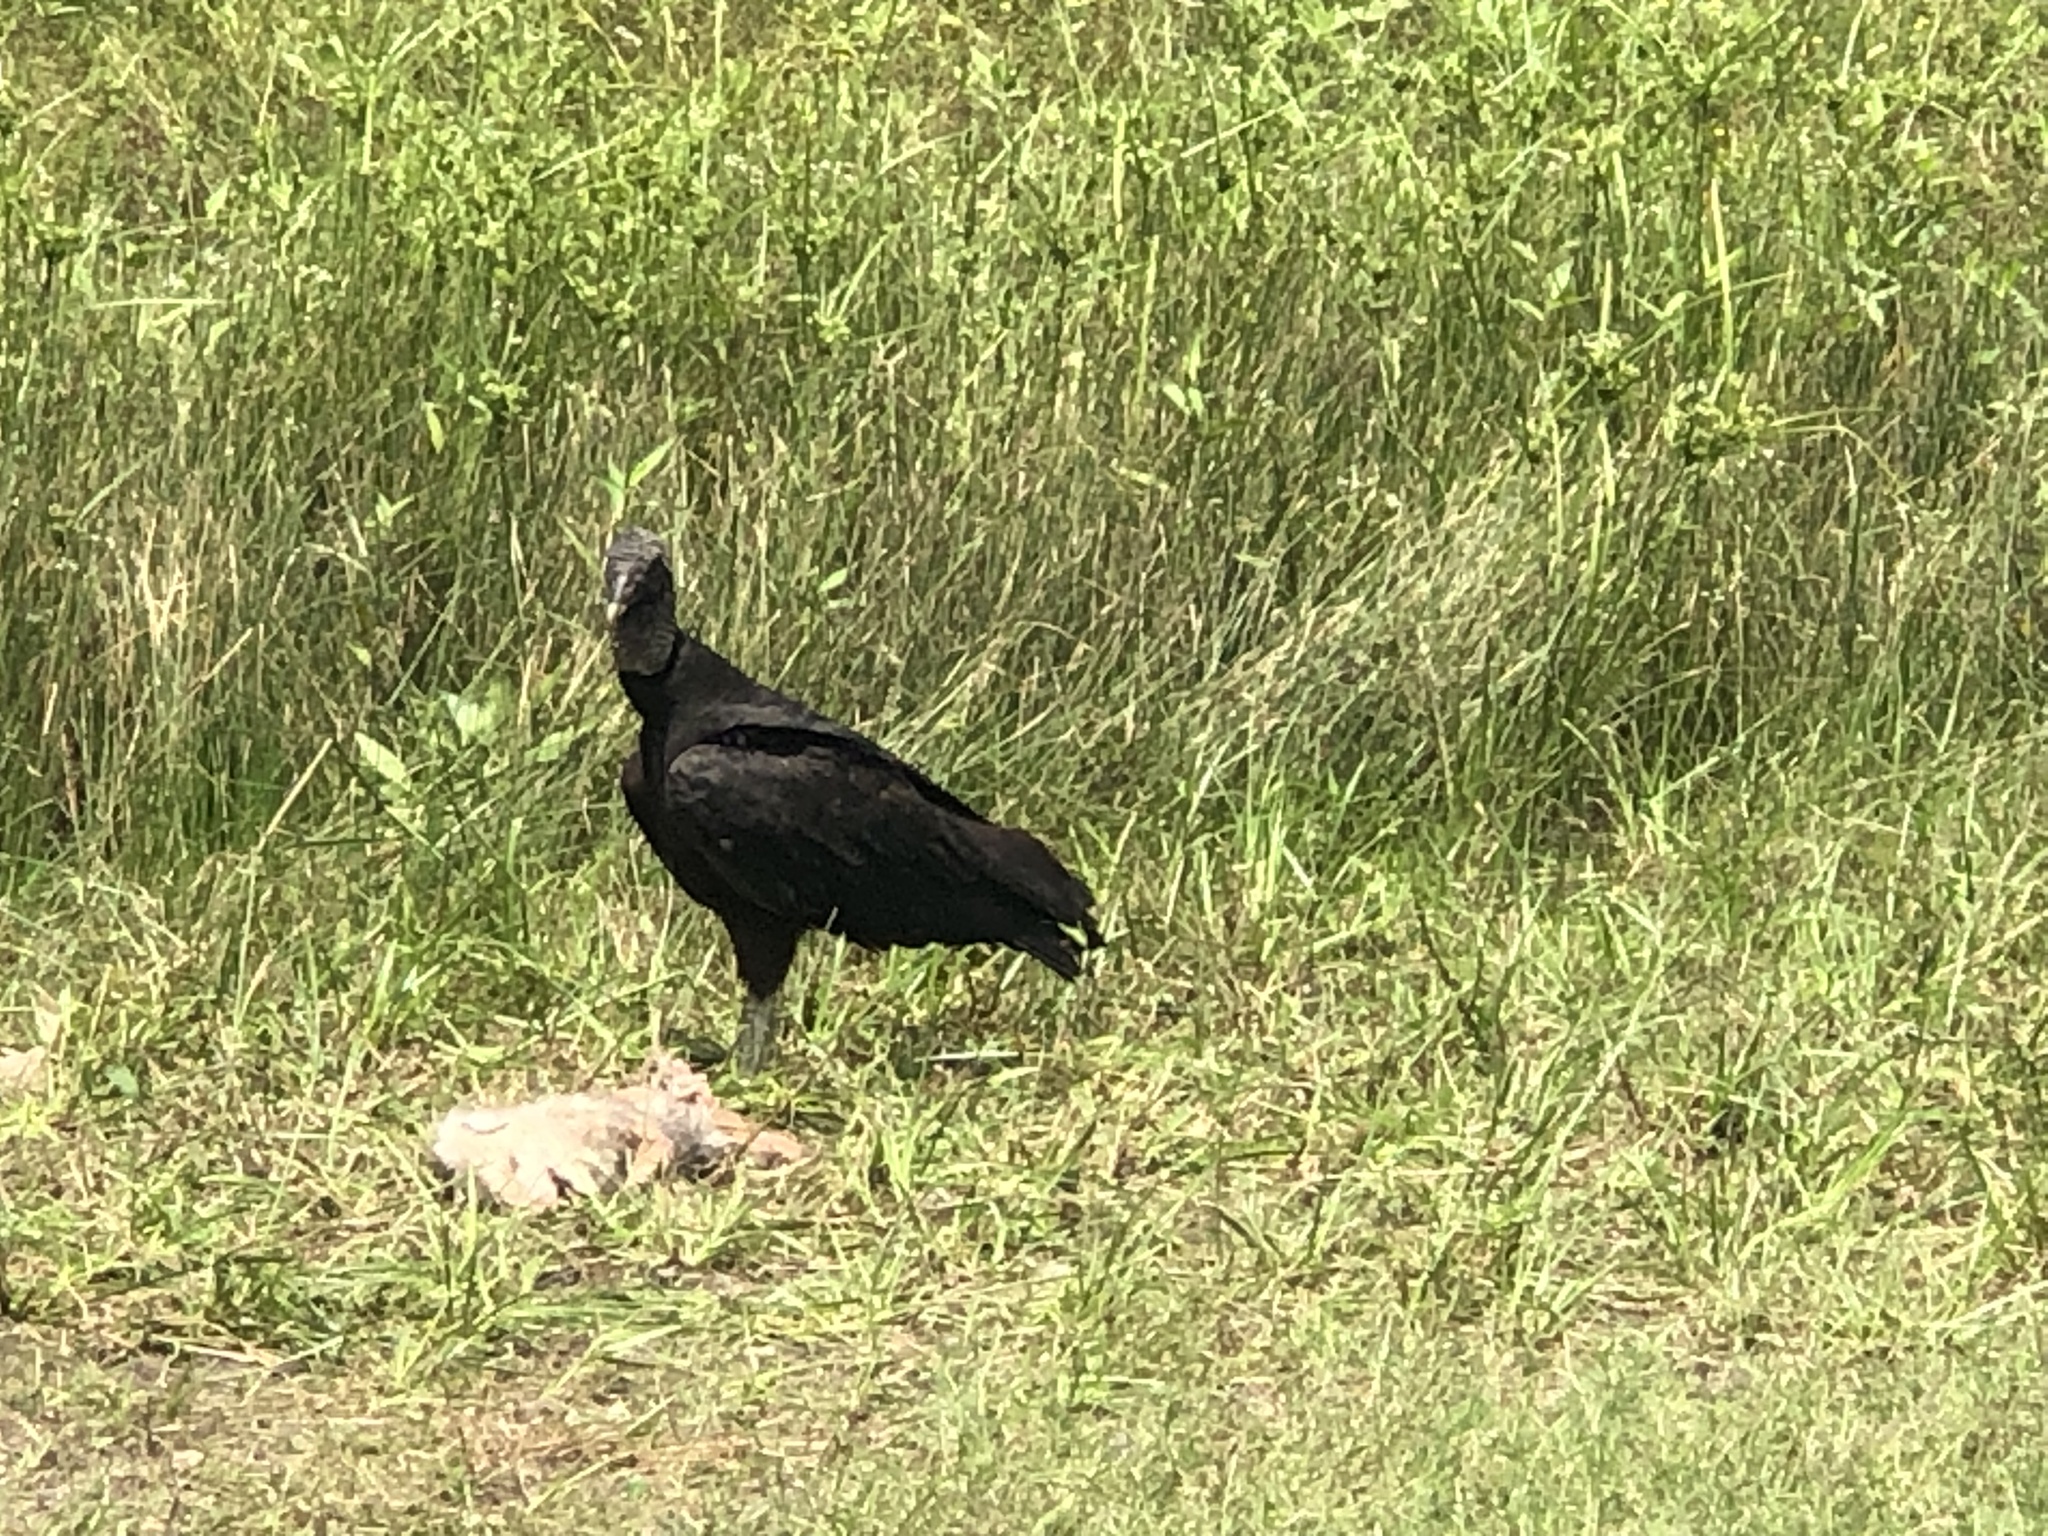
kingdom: Animalia
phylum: Chordata
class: Aves
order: Accipitriformes
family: Cathartidae
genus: Coragyps
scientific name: Coragyps atratus
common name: Black vulture
